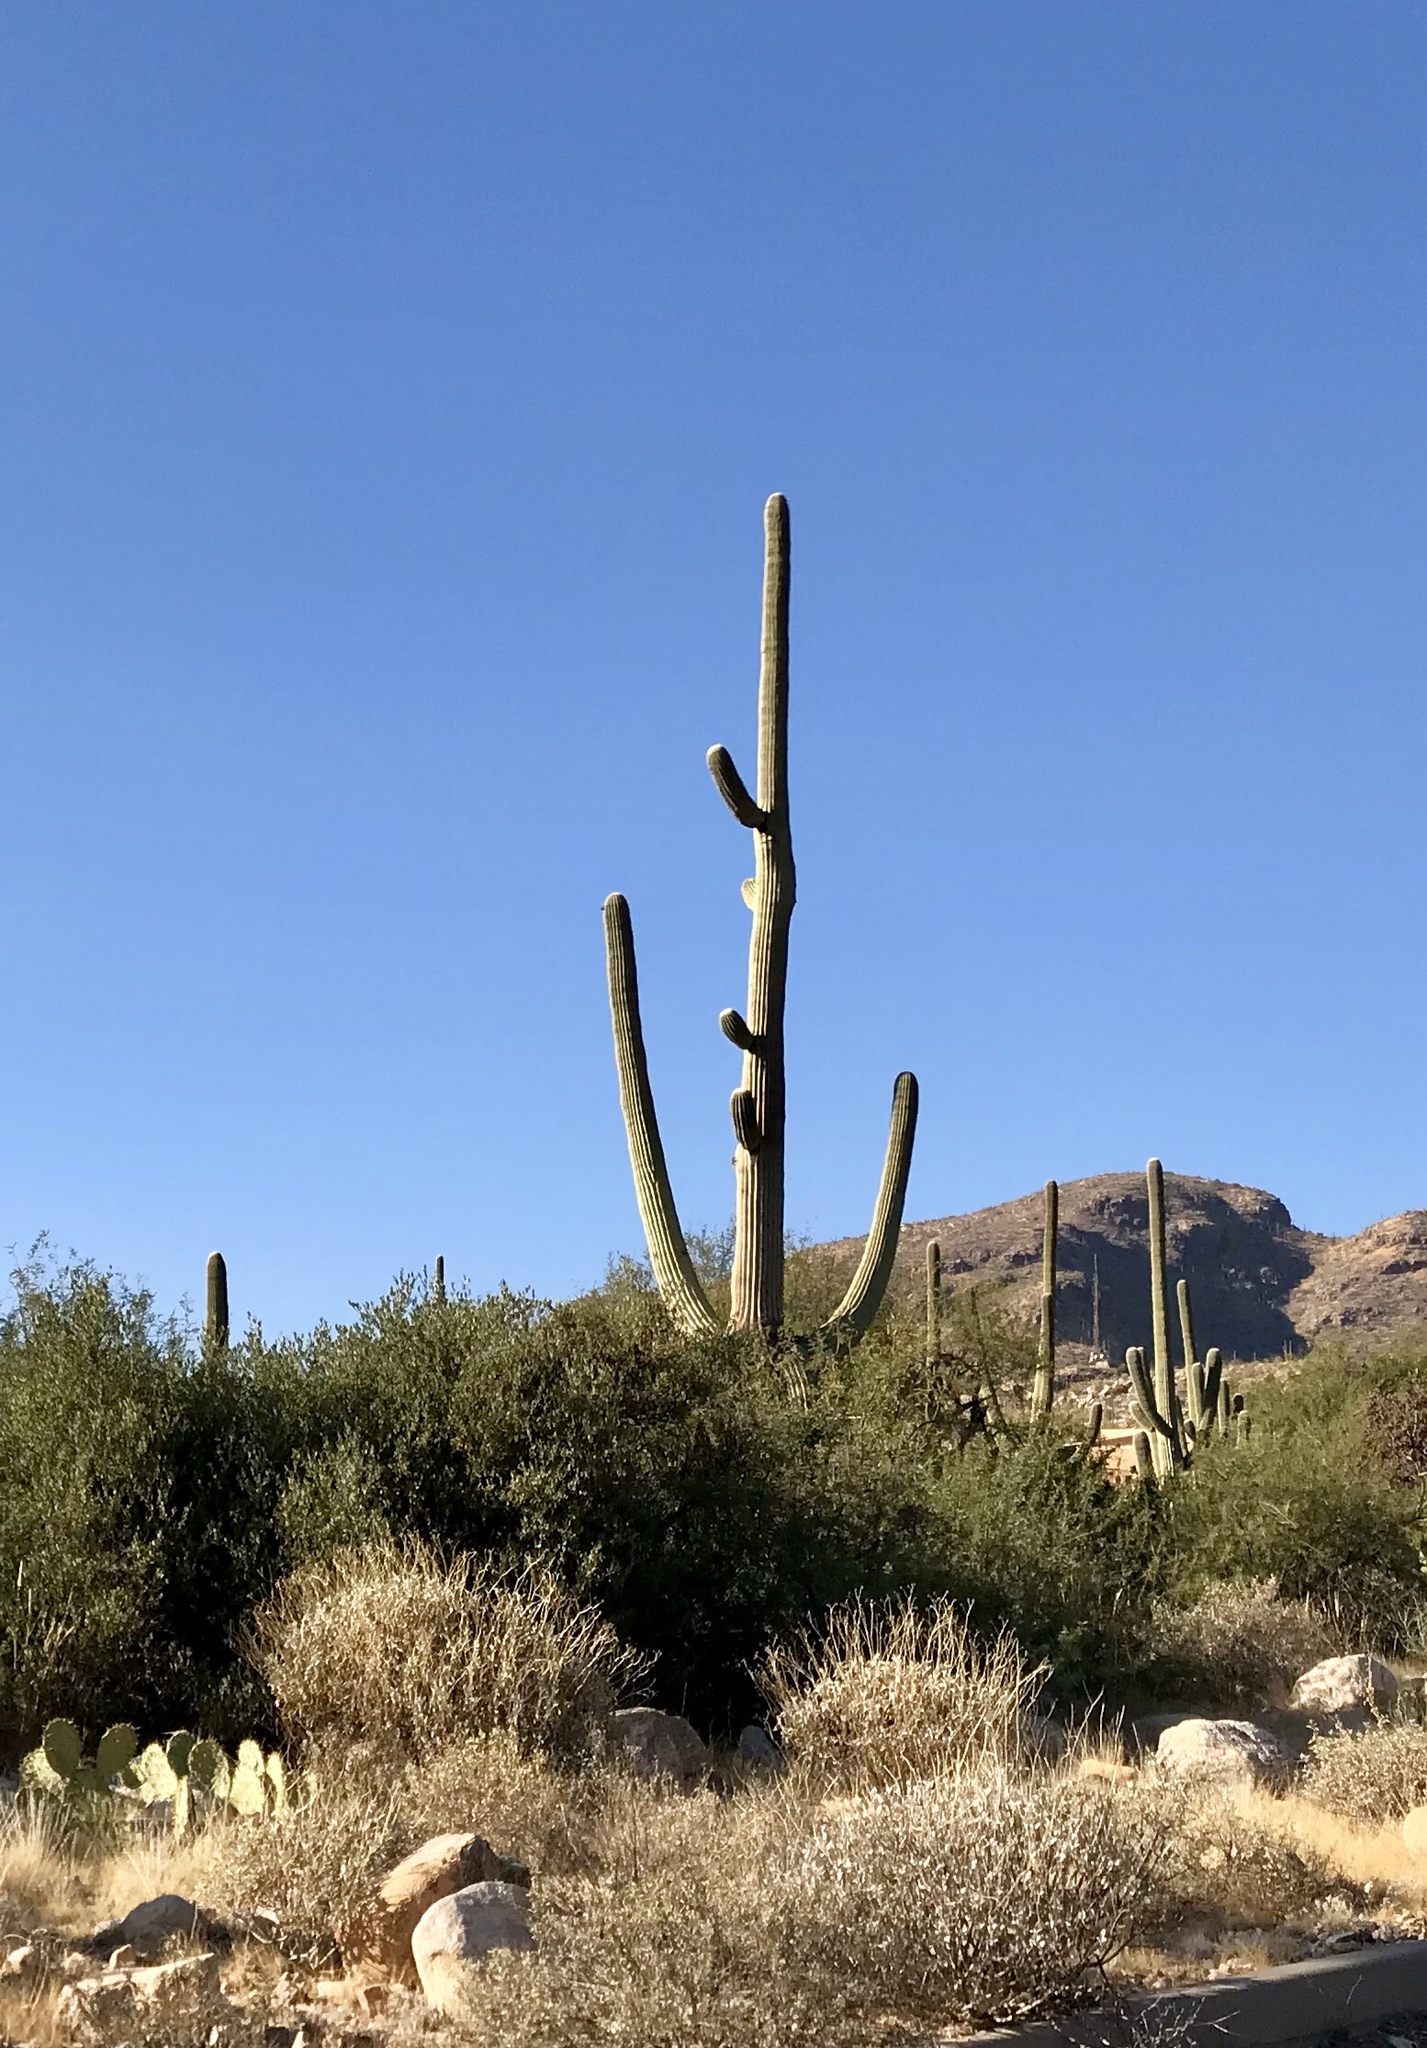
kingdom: Plantae
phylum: Tracheophyta
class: Magnoliopsida
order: Caryophyllales
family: Cactaceae
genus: Carnegiea
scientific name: Carnegiea gigantea
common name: Saguaro
